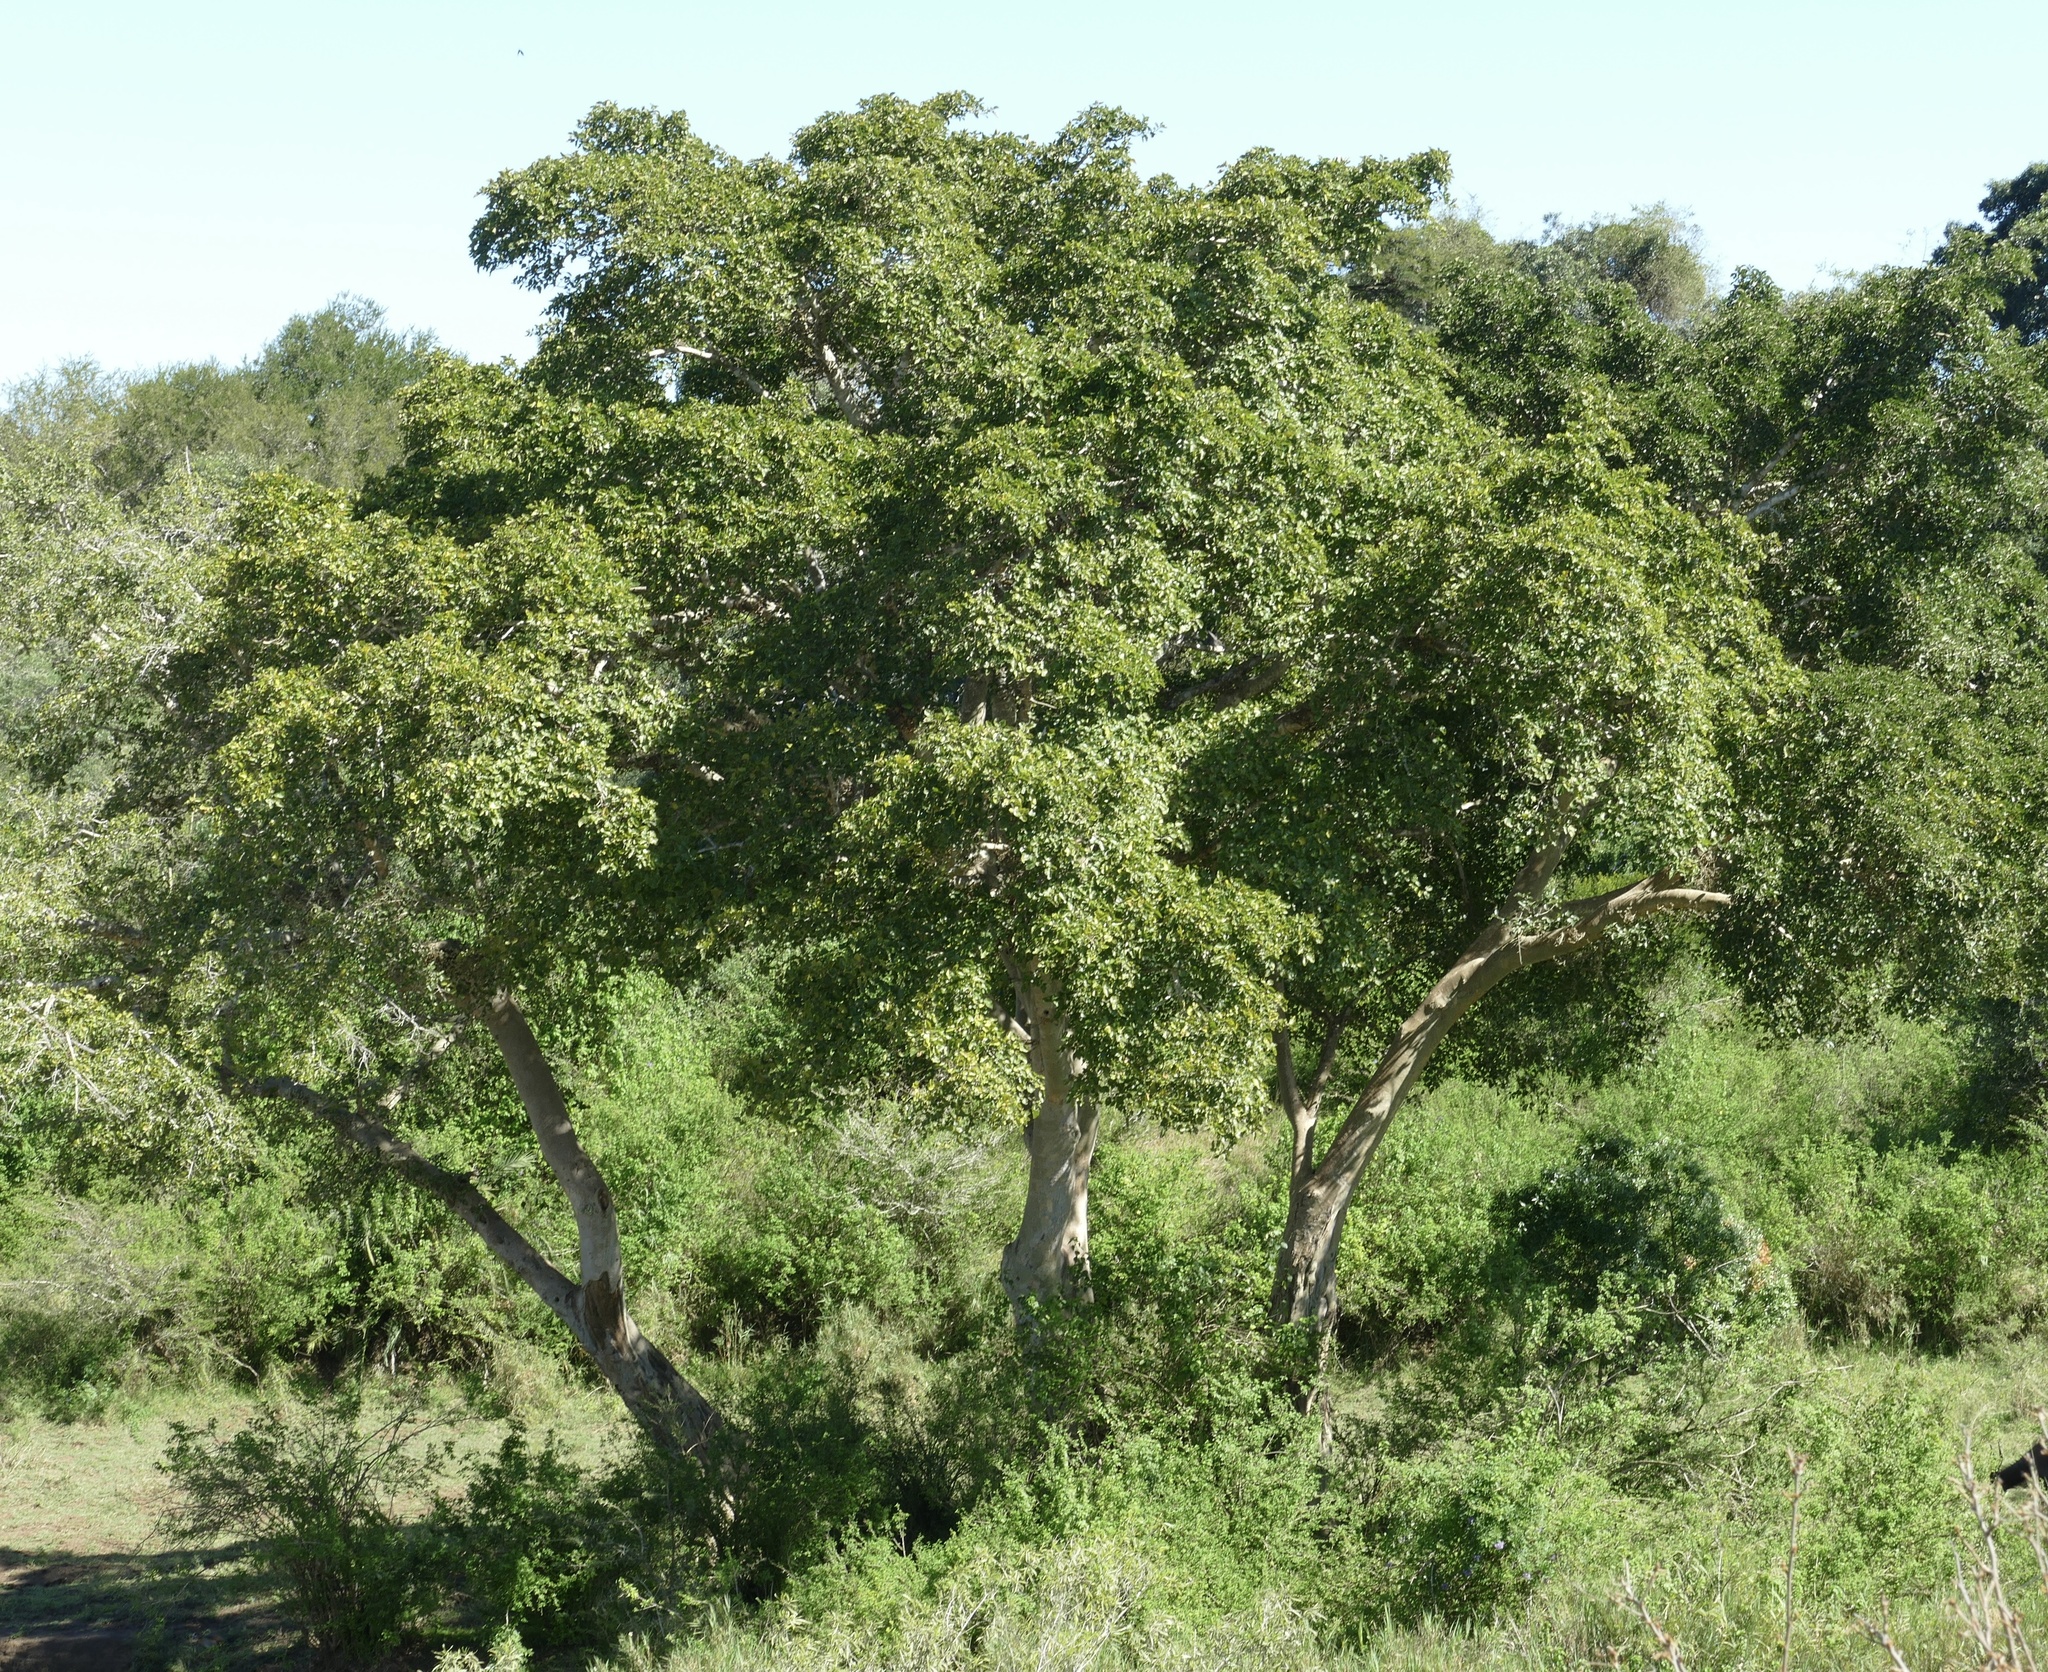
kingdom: Plantae
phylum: Tracheophyta
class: Magnoliopsida
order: Rosales
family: Moraceae
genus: Ficus
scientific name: Ficus sycomorus
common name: Sycomore
